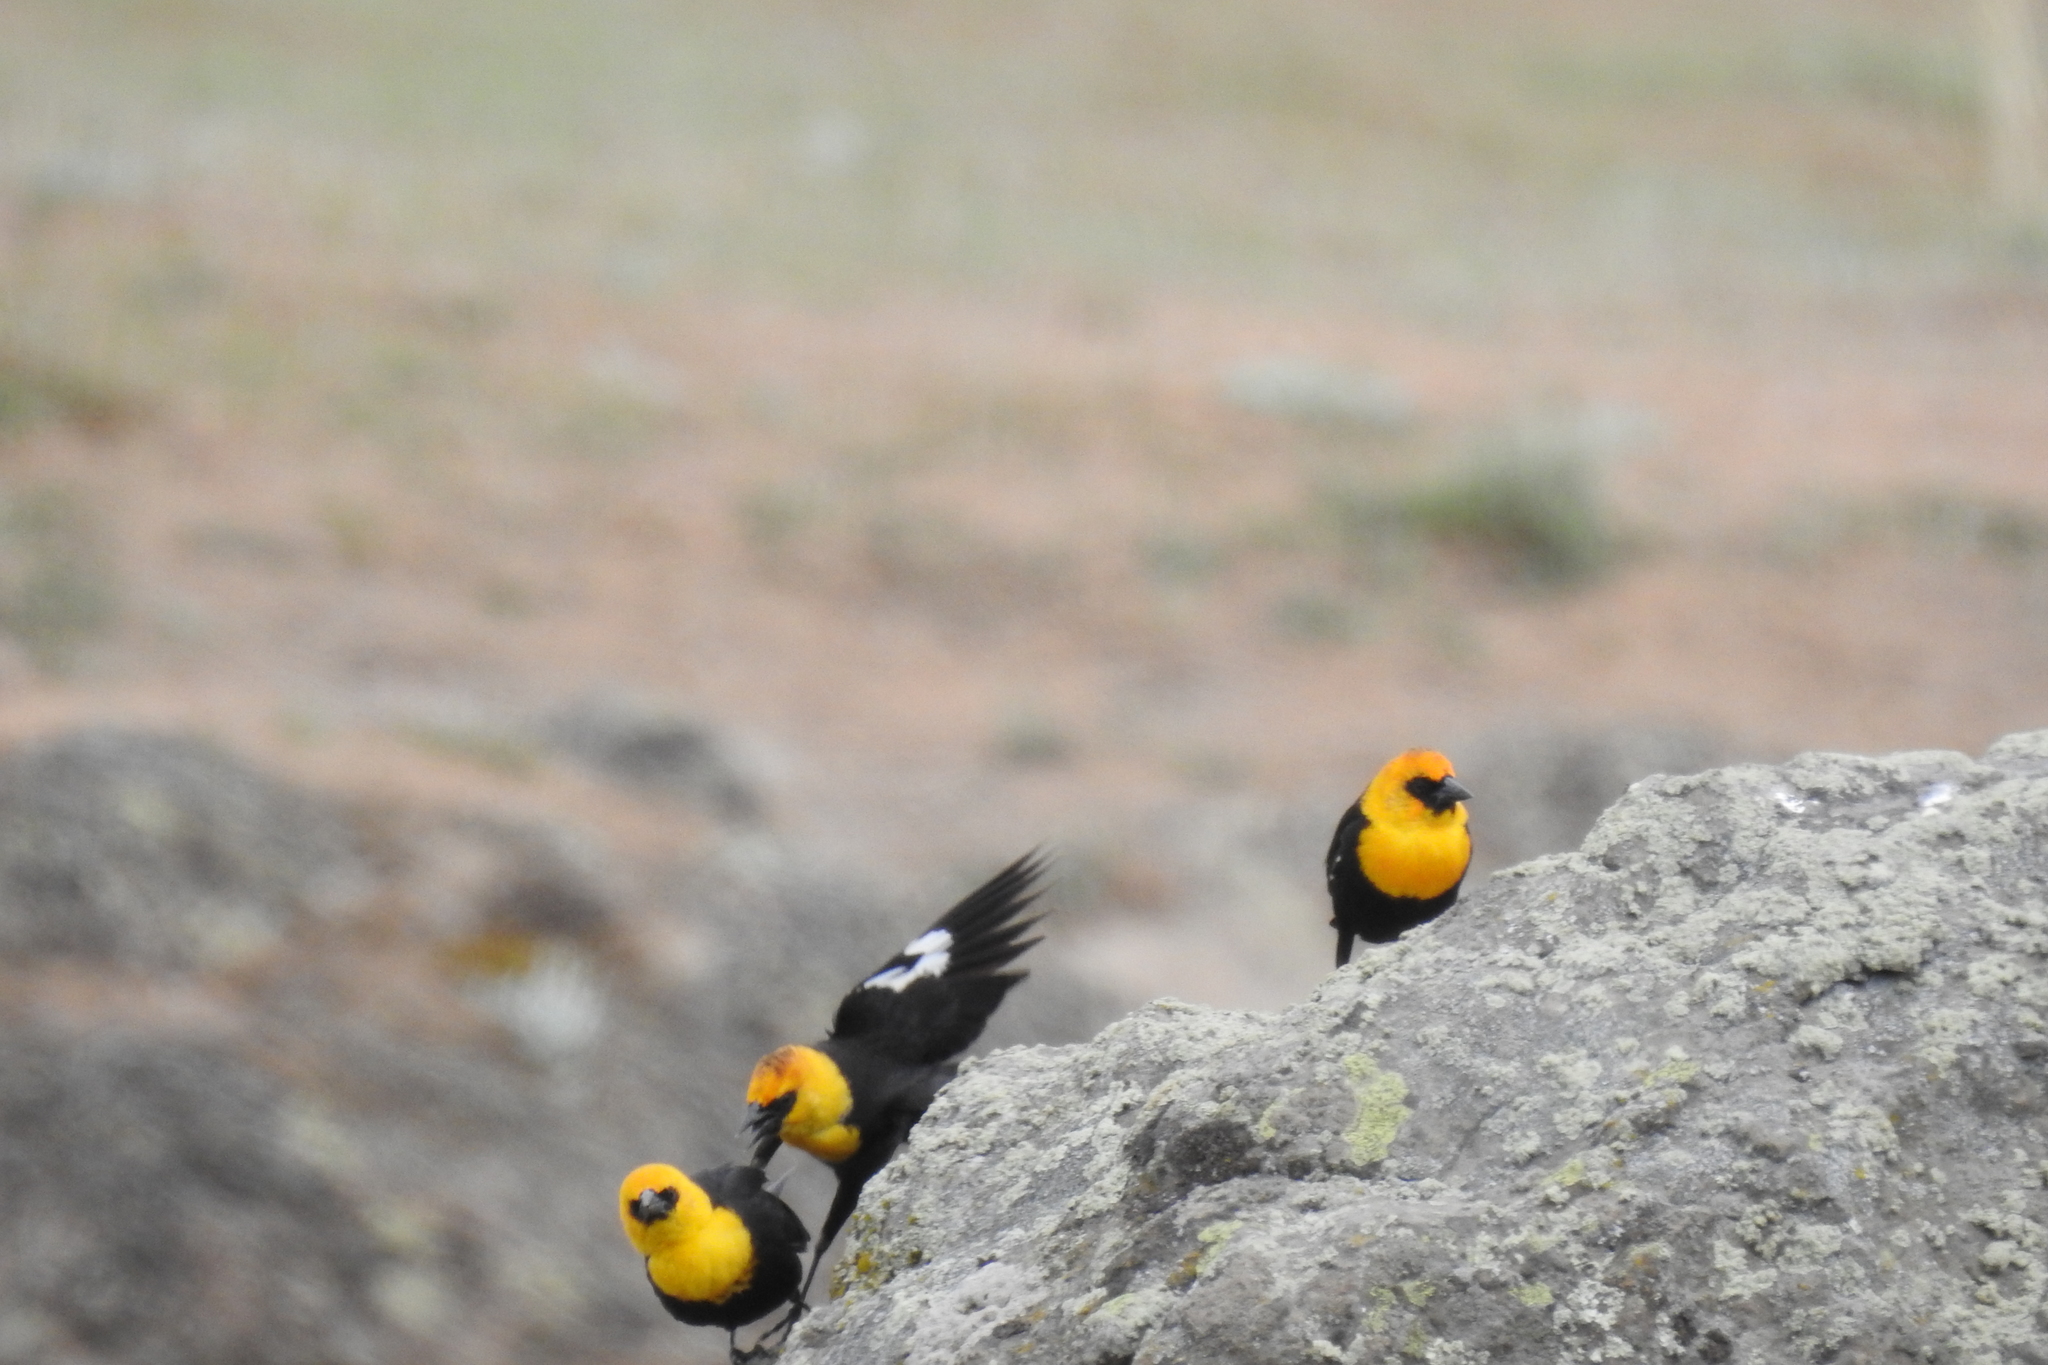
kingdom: Animalia
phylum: Chordata
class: Aves
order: Passeriformes
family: Icteridae
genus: Xanthocephalus
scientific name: Xanthocephalus xanthocephalus
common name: Yellow-headed blackbird
